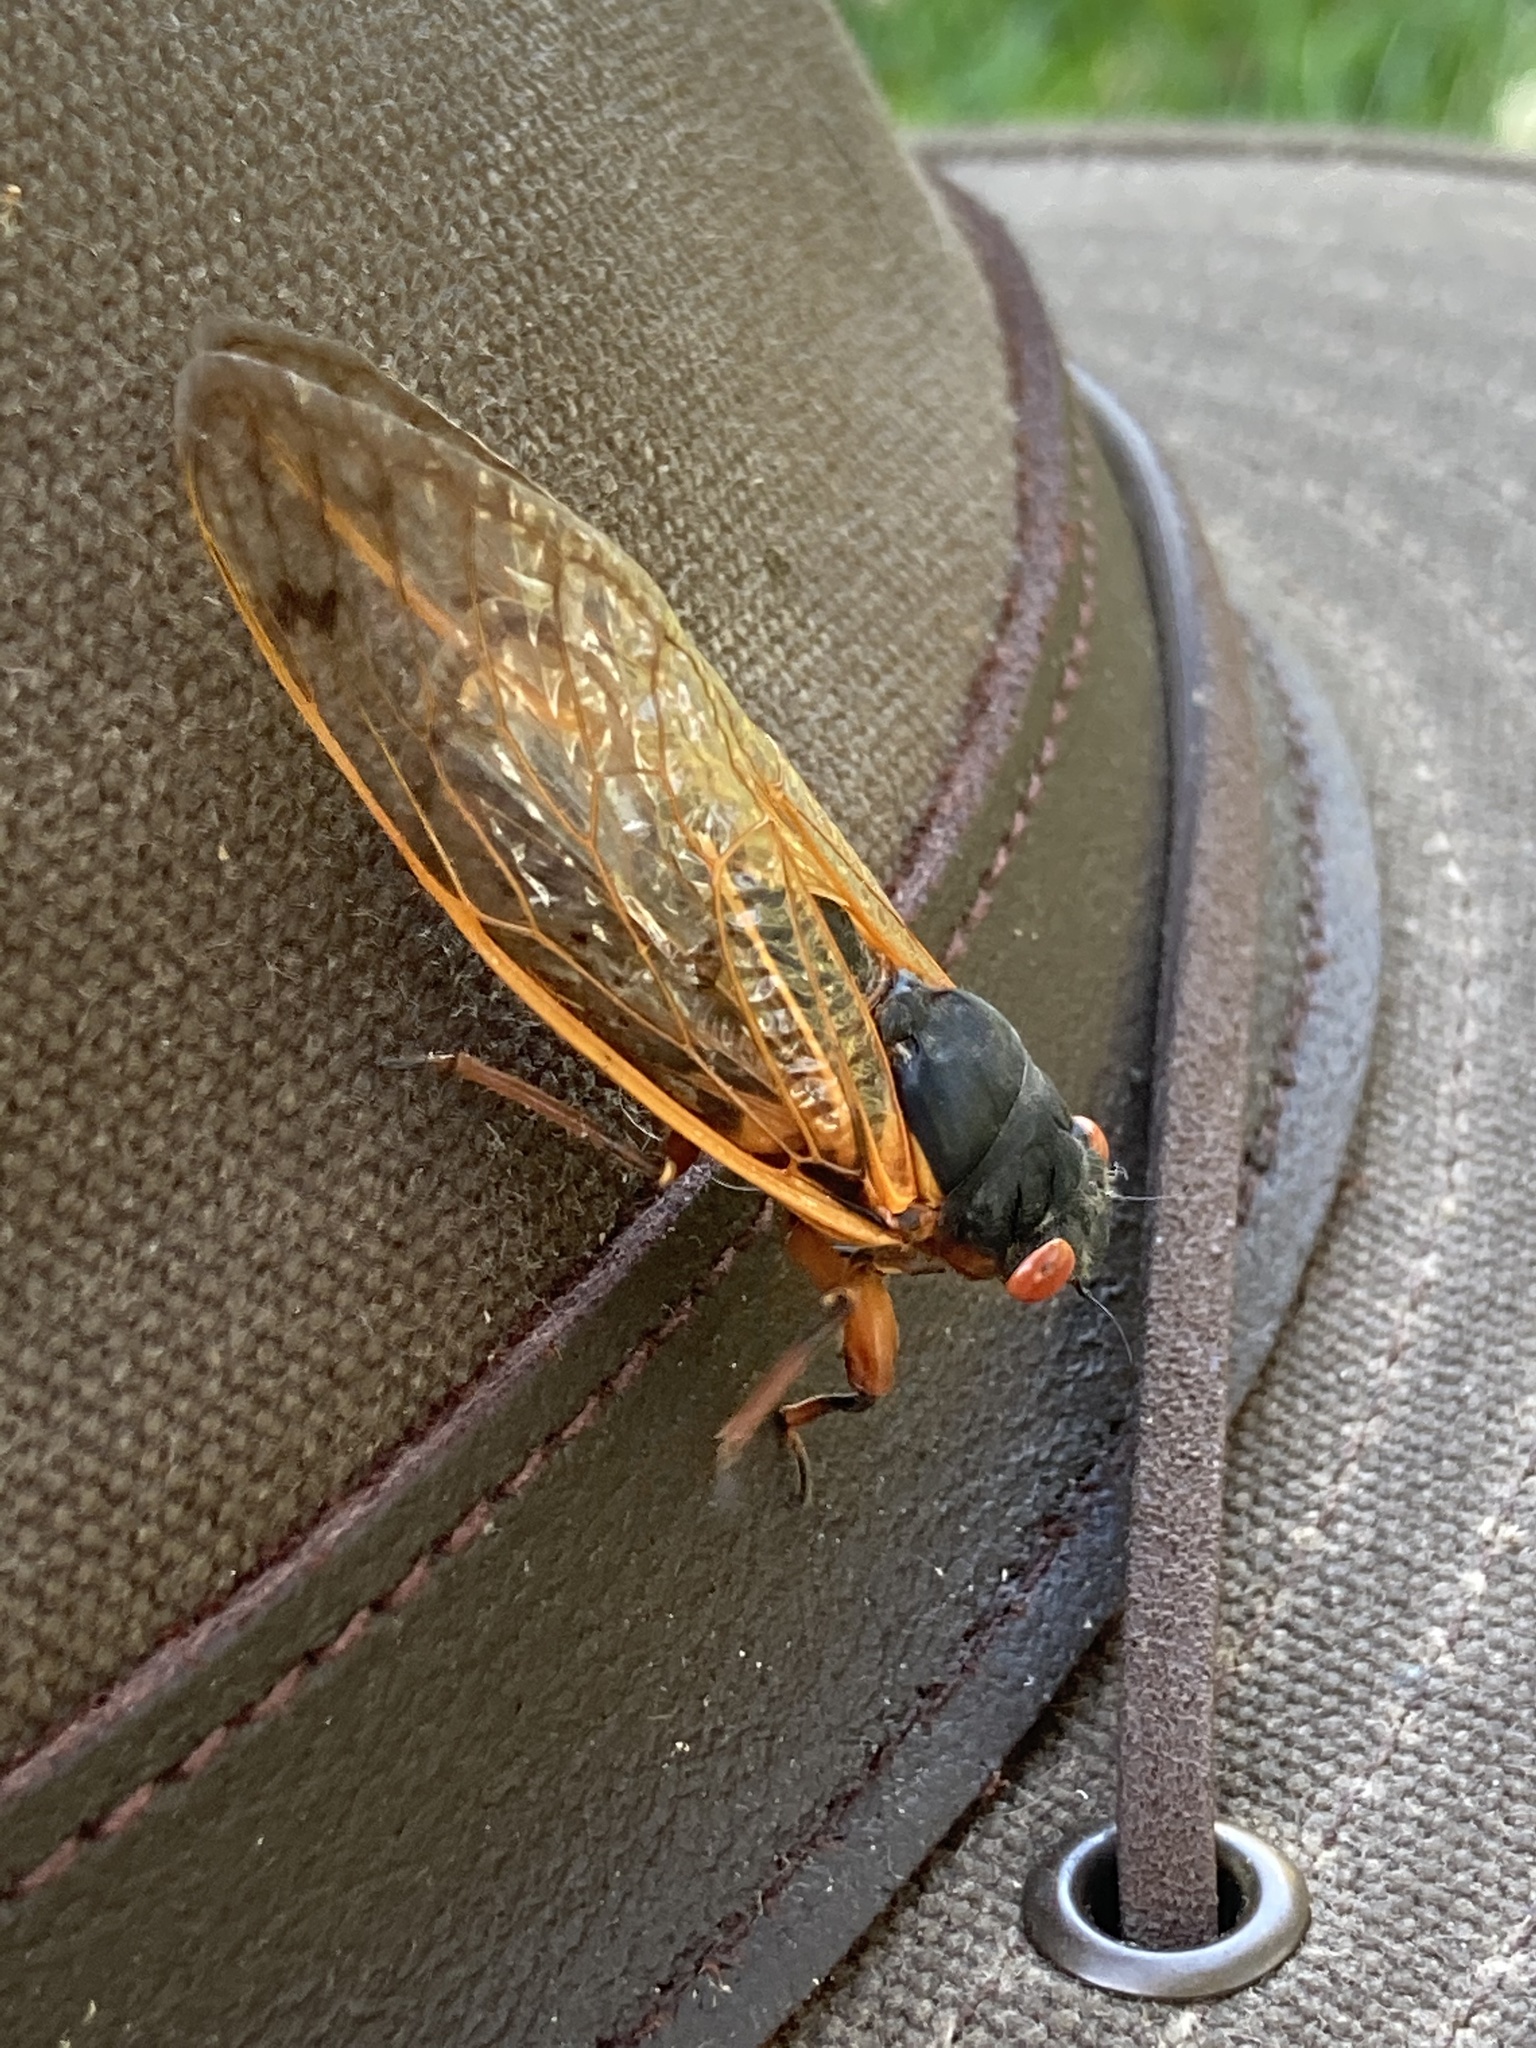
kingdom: Animalia
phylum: Arthropoda
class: Insecta
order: Hemiptera
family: Cicadidae
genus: Magicicada
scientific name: Magicicada septendecim
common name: Periodical cicada
